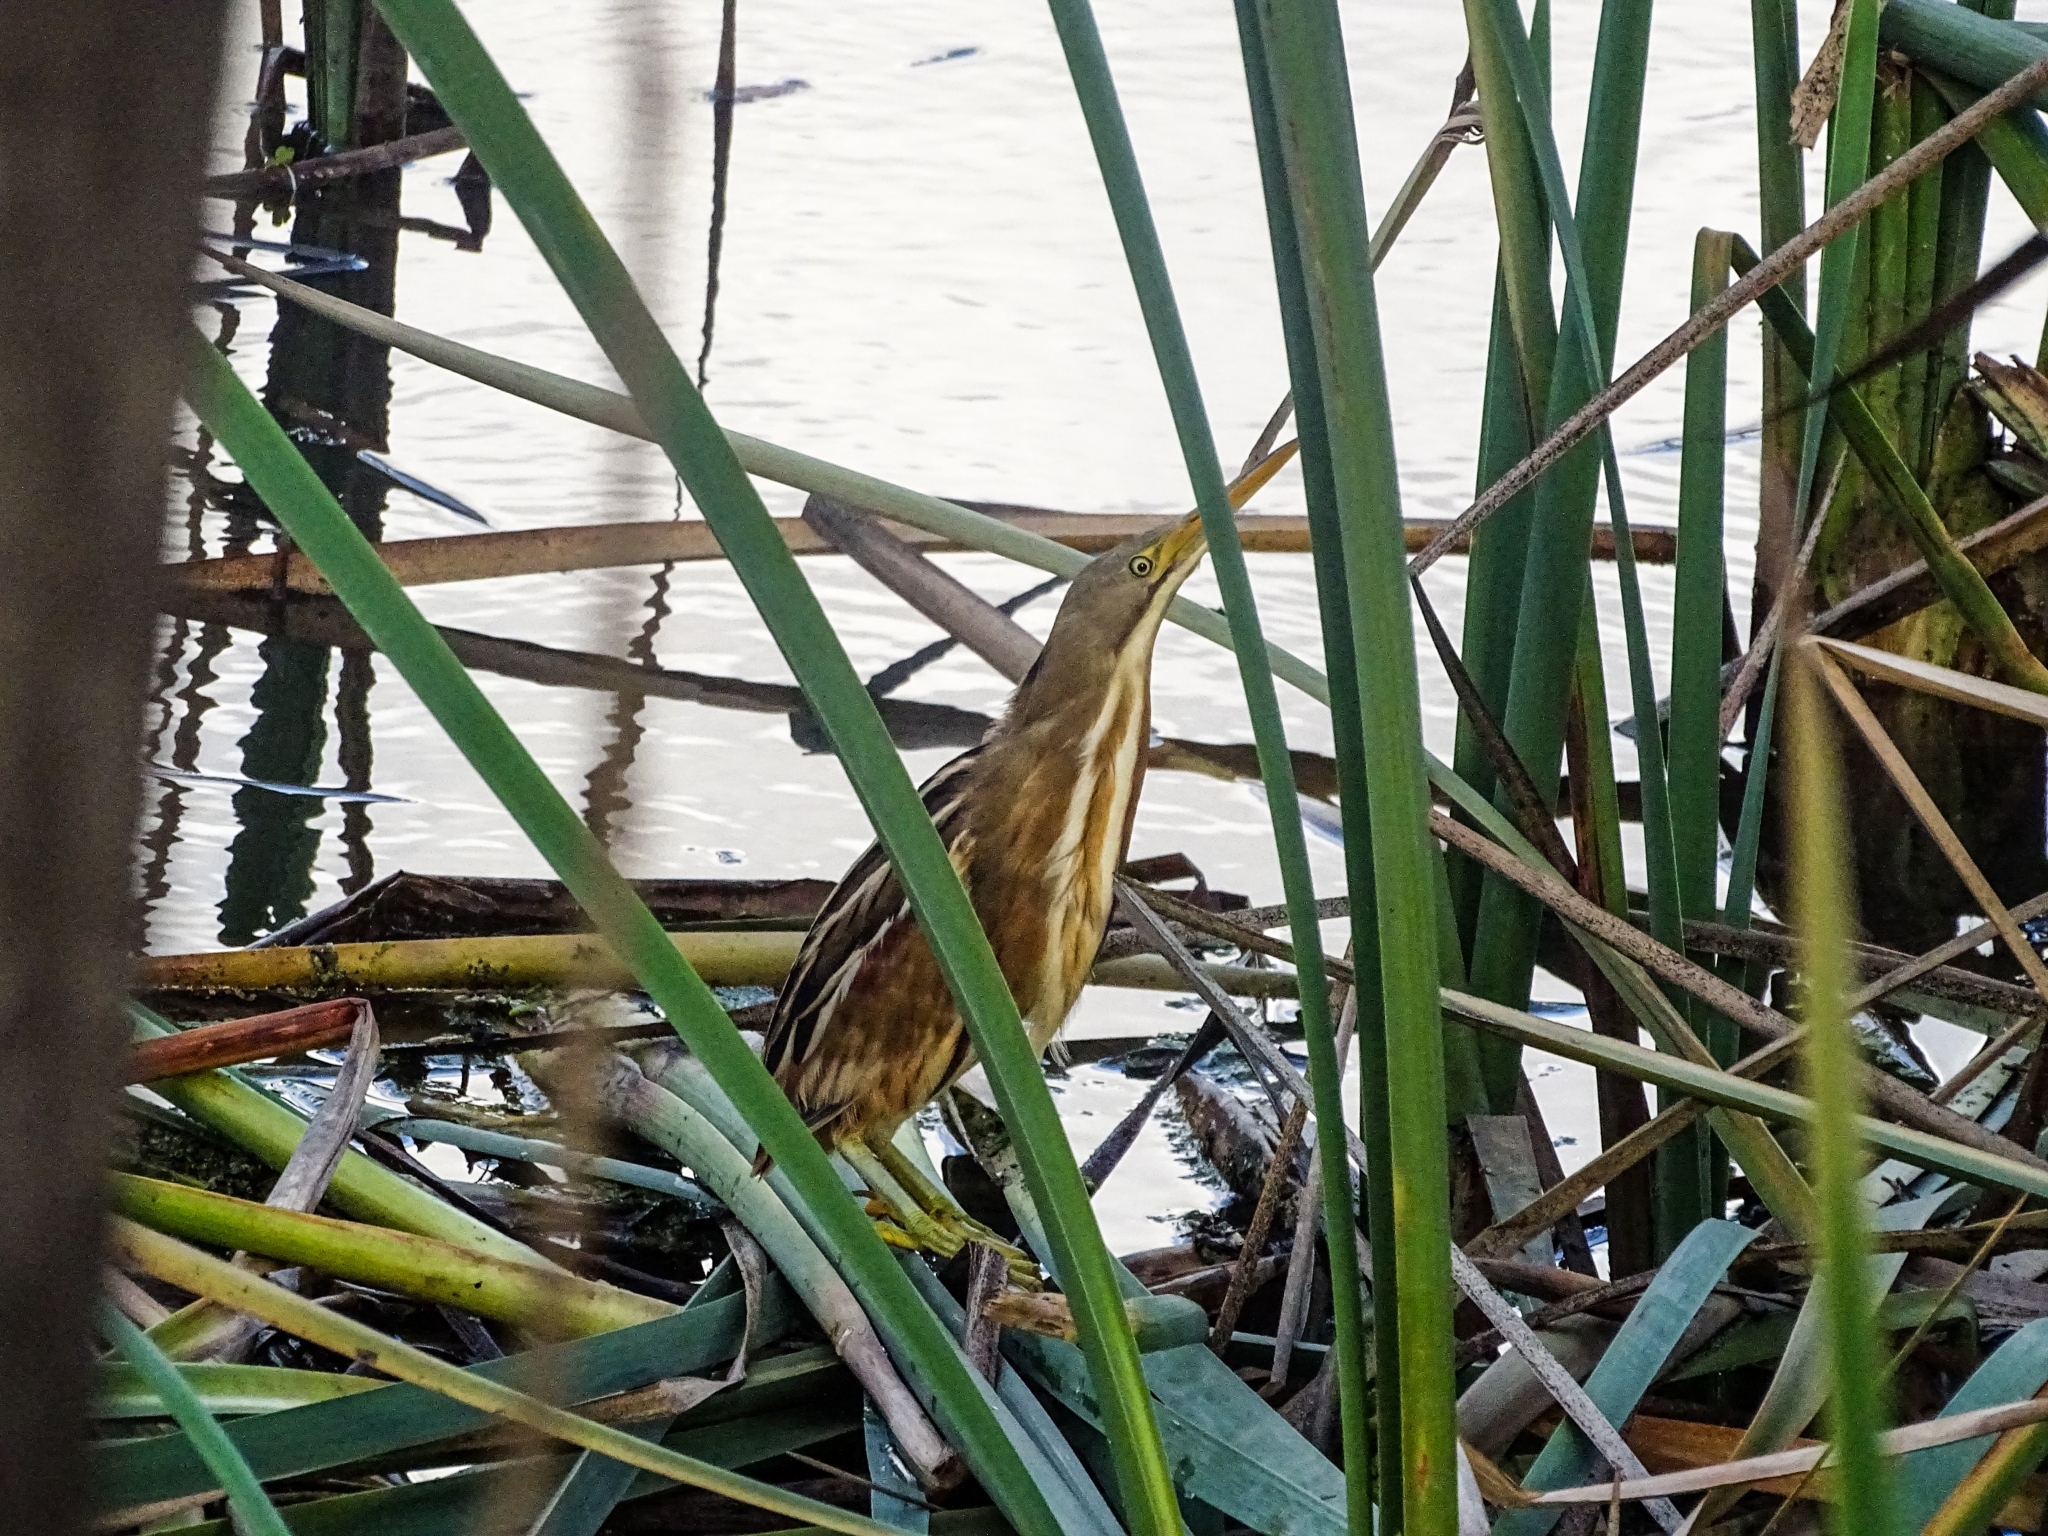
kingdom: Animalia
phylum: Chordata
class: Aves
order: Pelecaniformes
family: Ardeidae
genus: Ixobrychus
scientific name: Ixobrychus involucris
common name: Stripe-backed bittern
